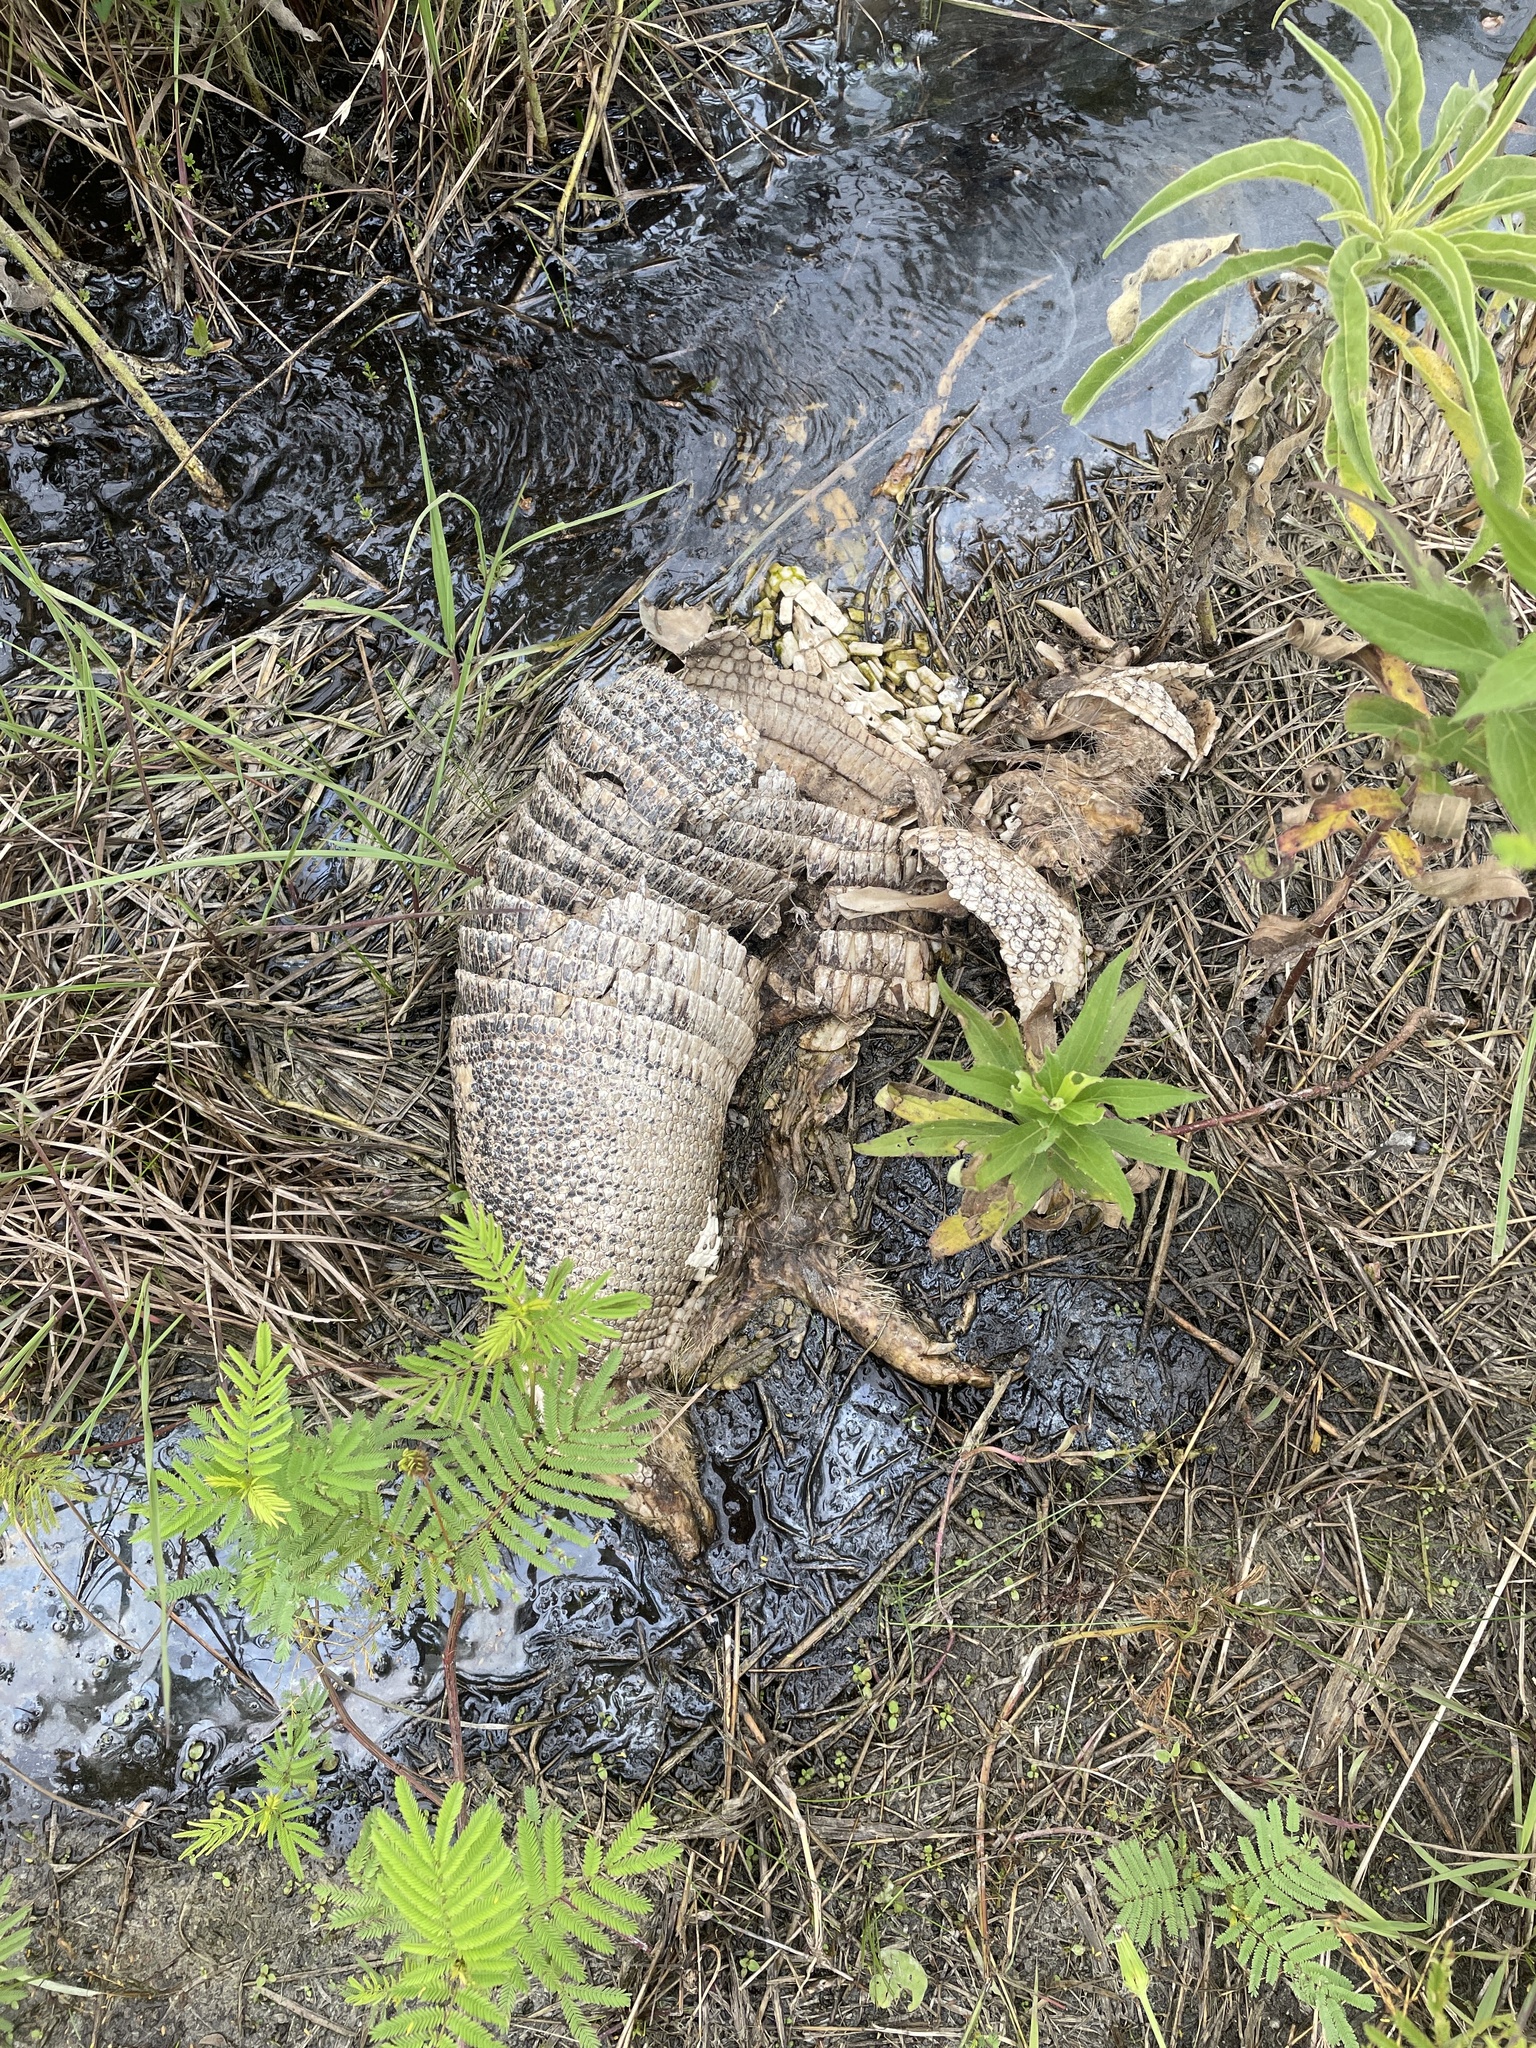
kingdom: Animalia
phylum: Chordata
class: Mammalia
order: Cingulata
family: Dasypodidae
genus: Dasypus
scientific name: Dasypus novemcinctus
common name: Nine-banded armadillo
